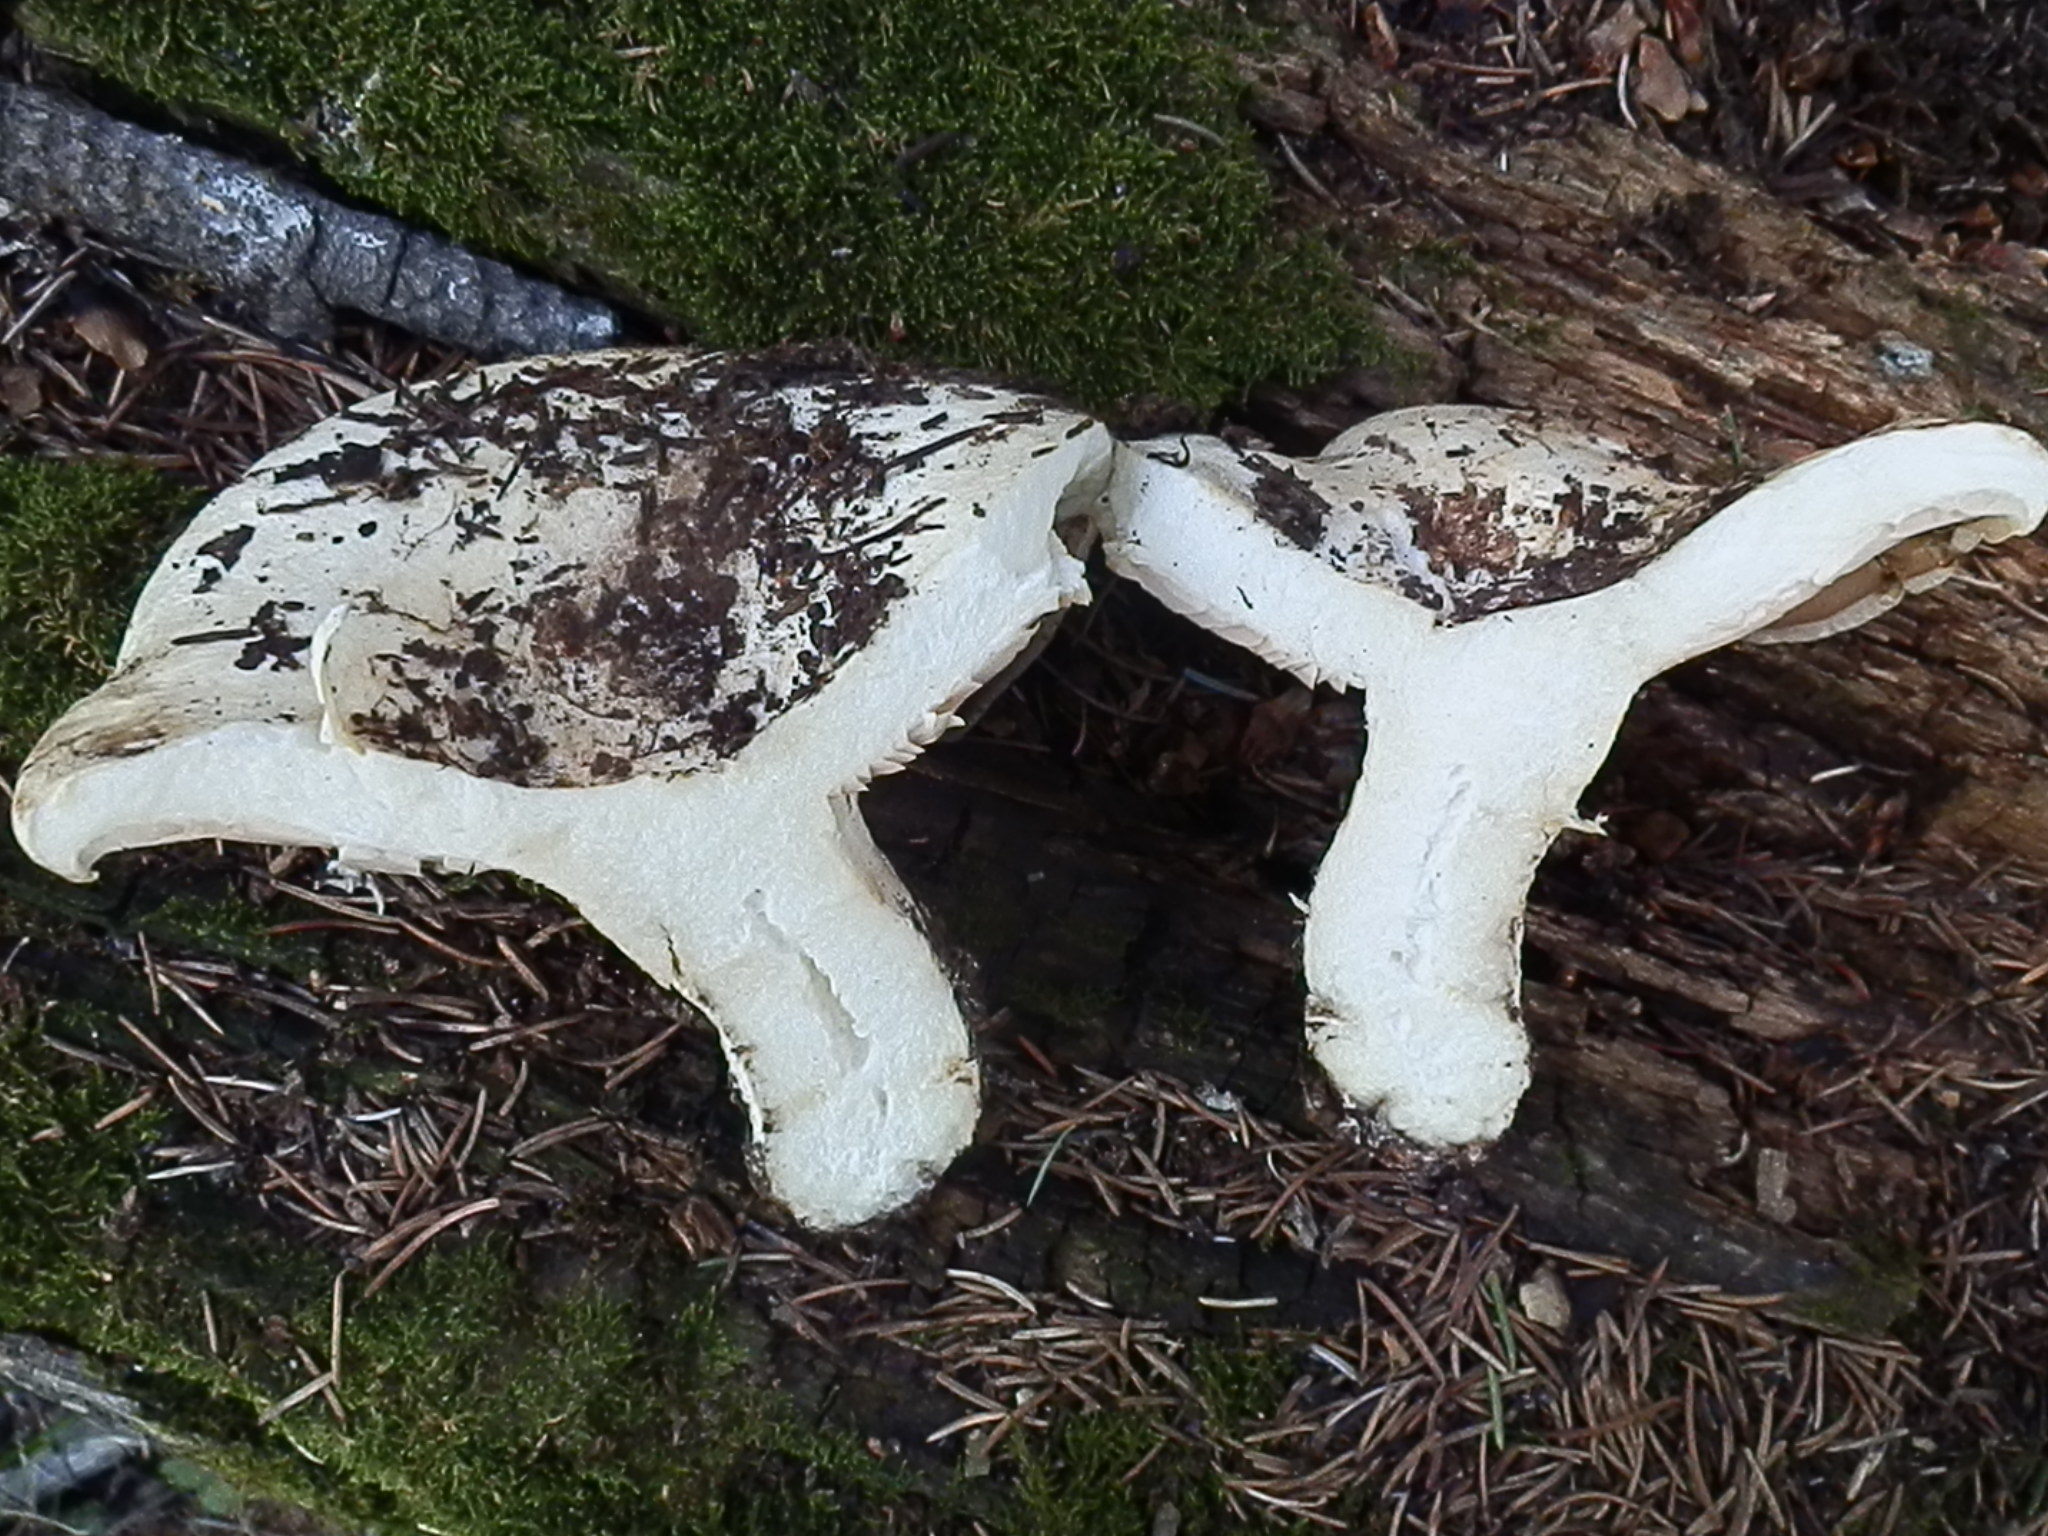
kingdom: Fungi
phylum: Basidiomycota
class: Agaricomycetes
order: Russulales
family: Russulaceae
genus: Lactarius
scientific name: Lactarius controversus
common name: Blushing milkcap
